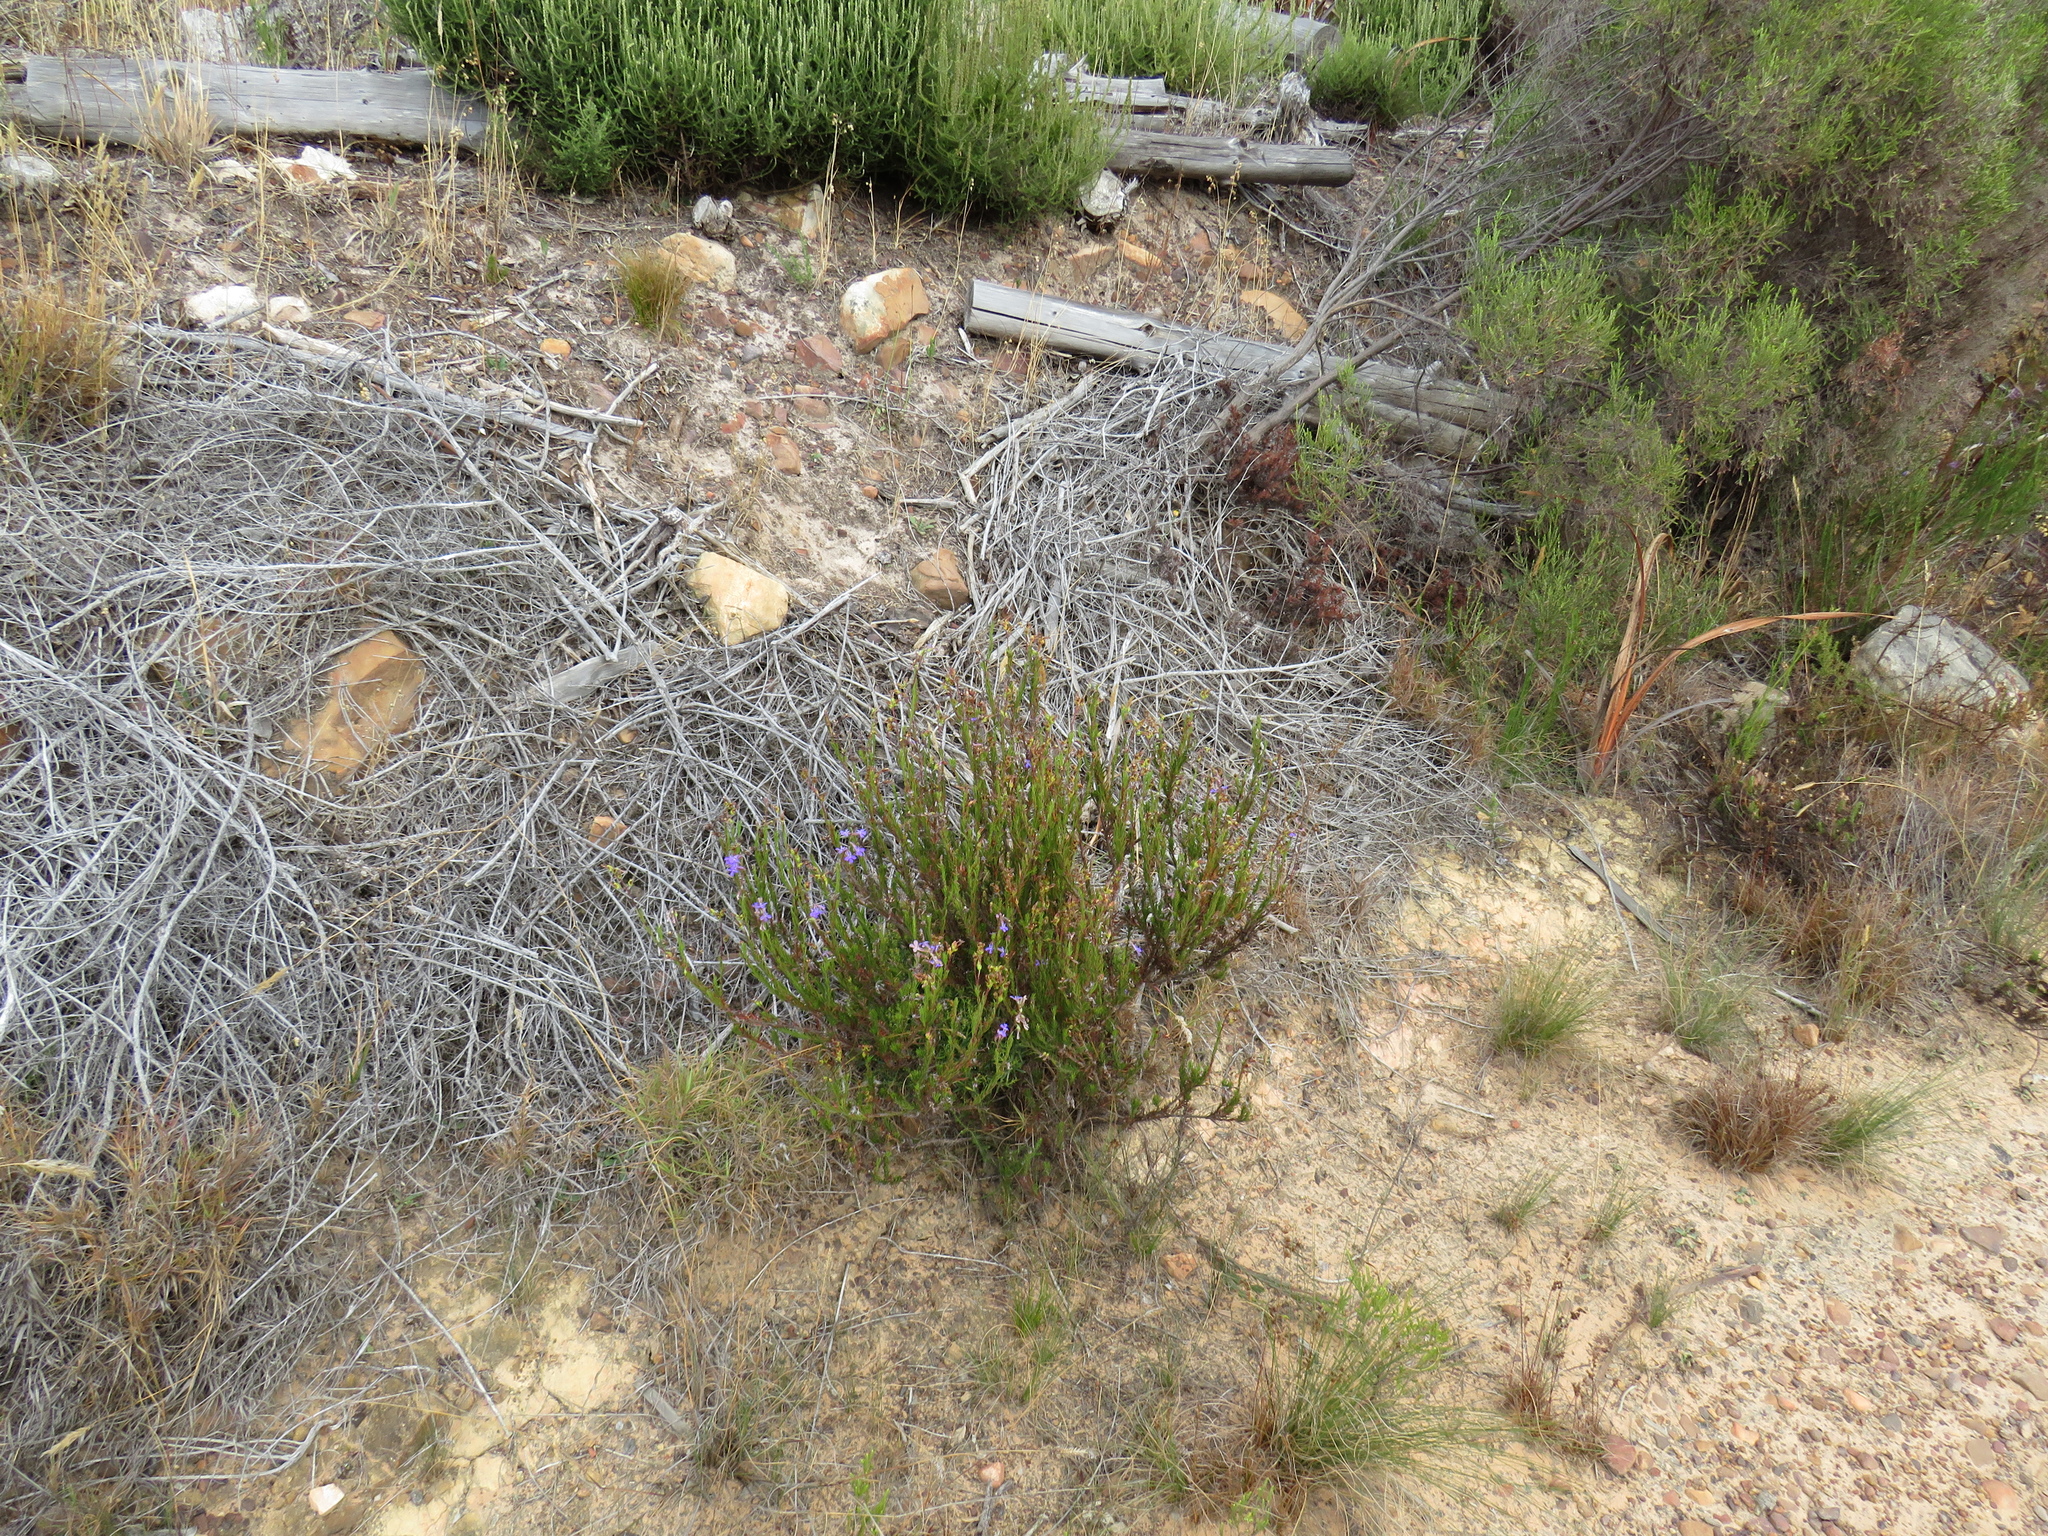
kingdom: Plantae
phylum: Tracheophyta
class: Magnoliopsida
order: Asterales
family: Campanulaceae
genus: Lobelia
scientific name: Lobelia pinifolia
